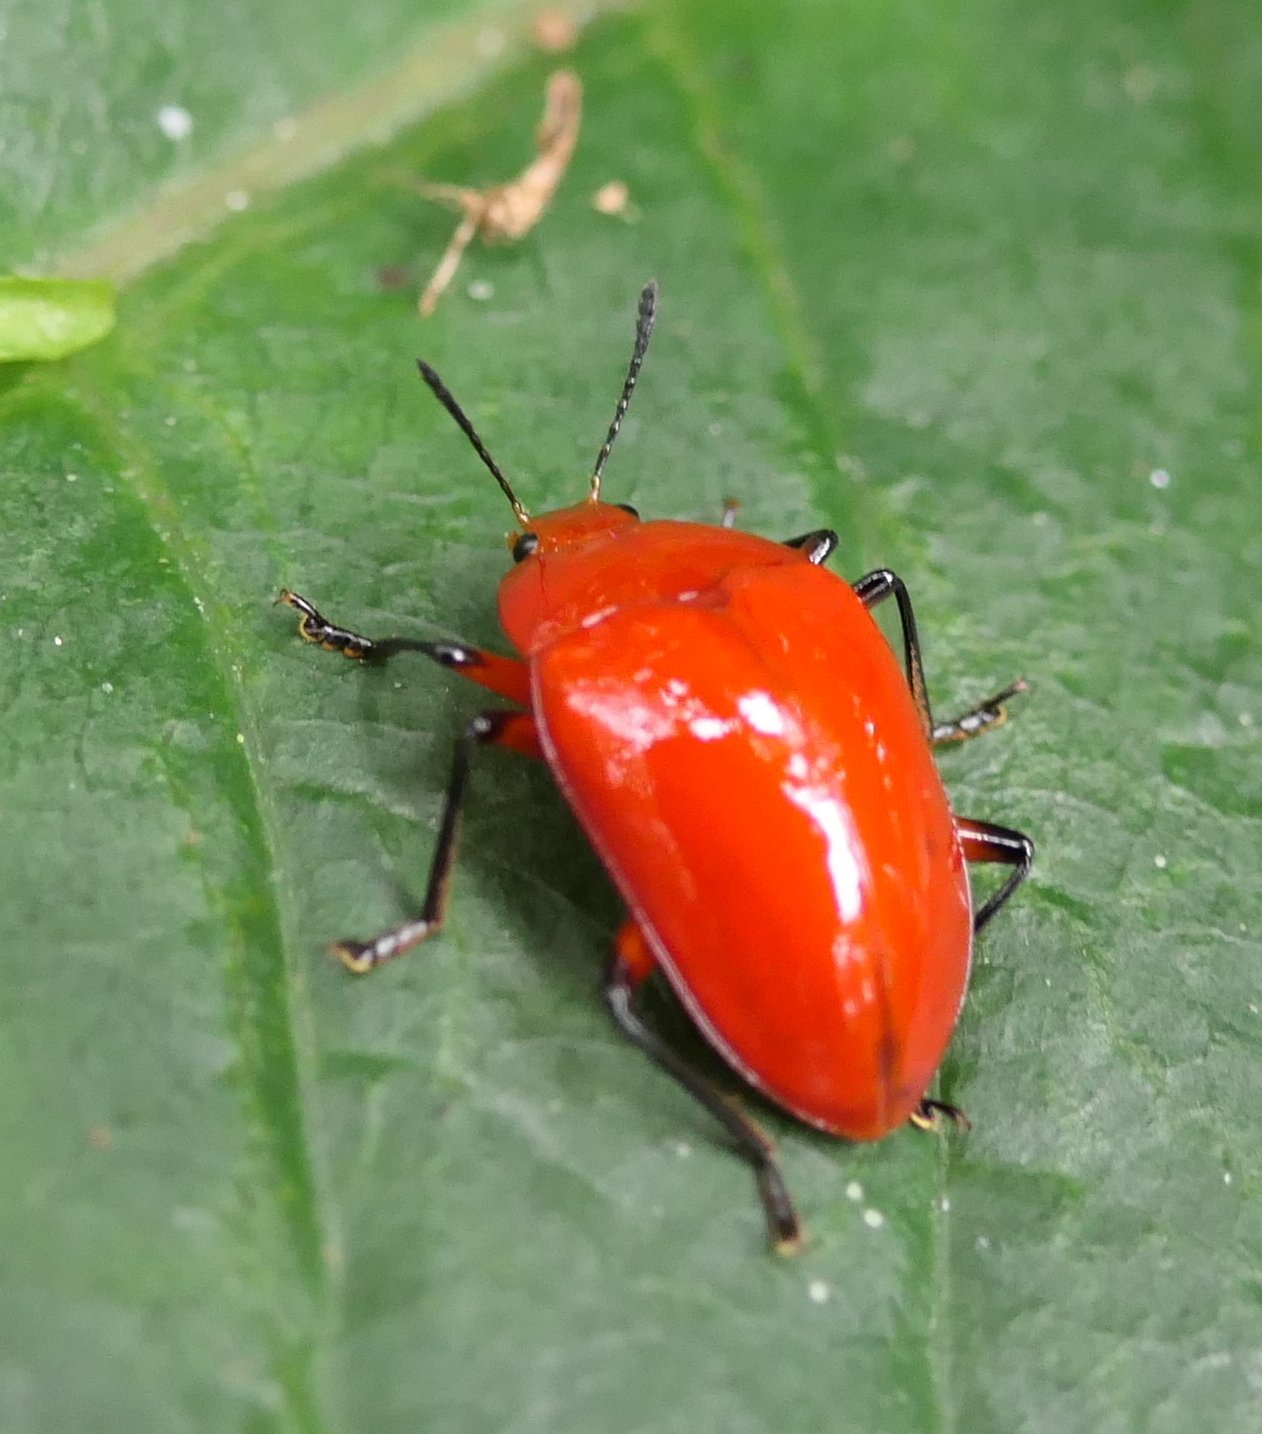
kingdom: Animalia
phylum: Arthropoda
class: Insecta
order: Coleoptera
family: Erotylidae
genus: Iphiclus
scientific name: Iphiclus
